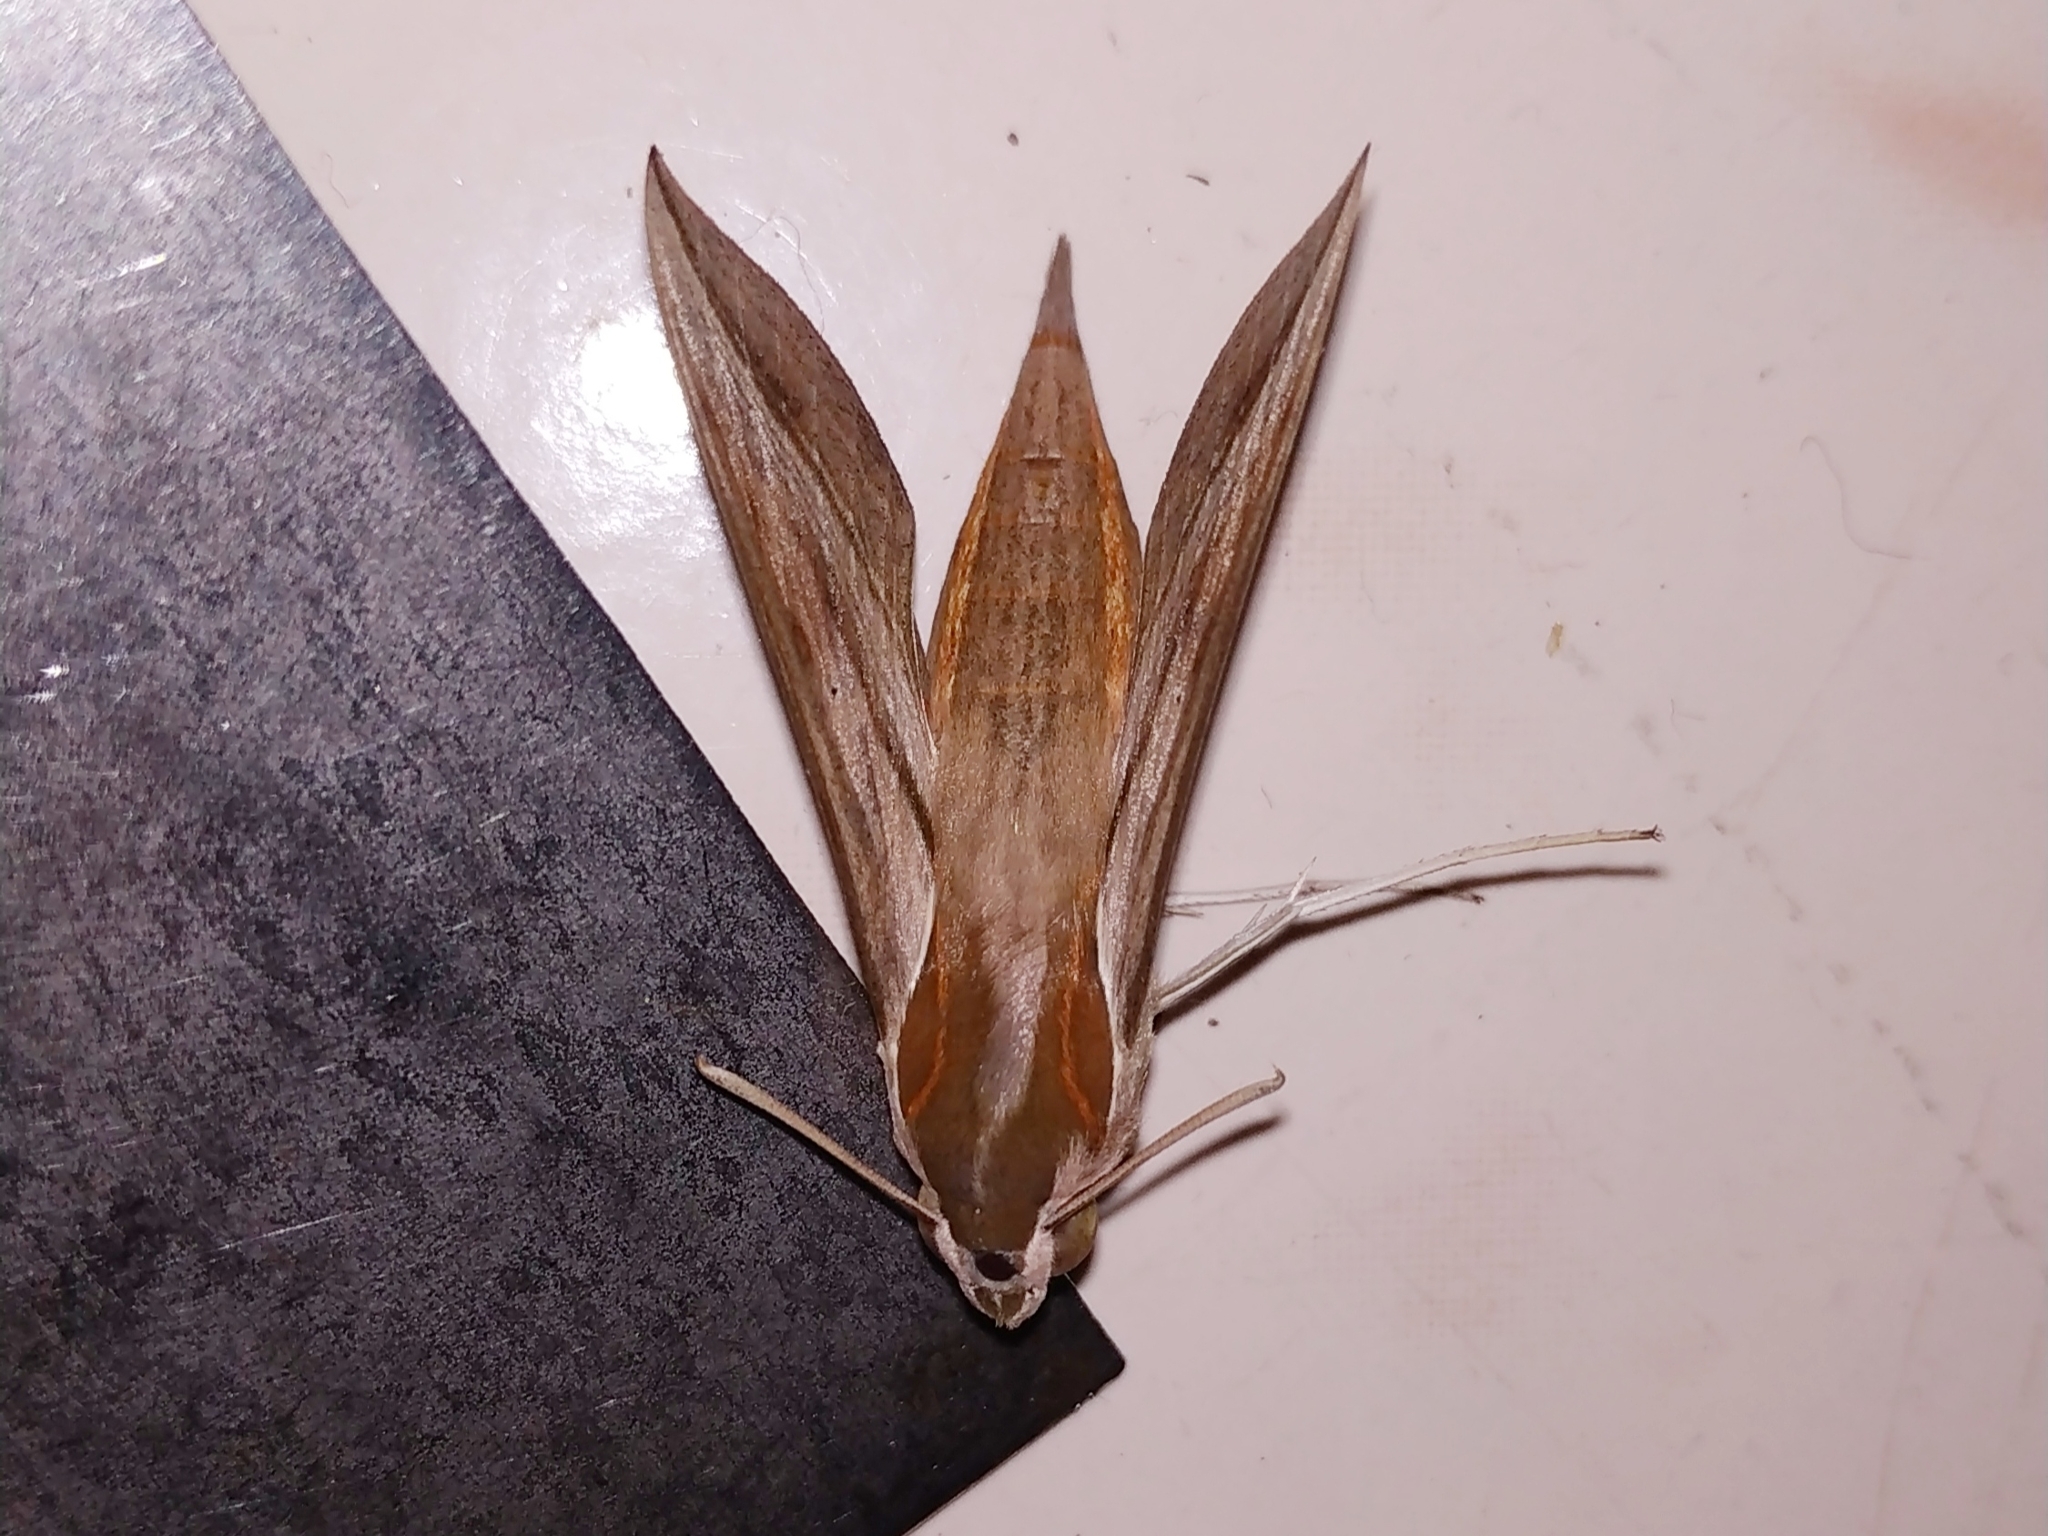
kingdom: Animalia
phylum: Arthropoda
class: Insecta
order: Lepidoptera
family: Sphingidae
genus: Hippotion
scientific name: Hippotion rosetta
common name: Vine hawk moth
